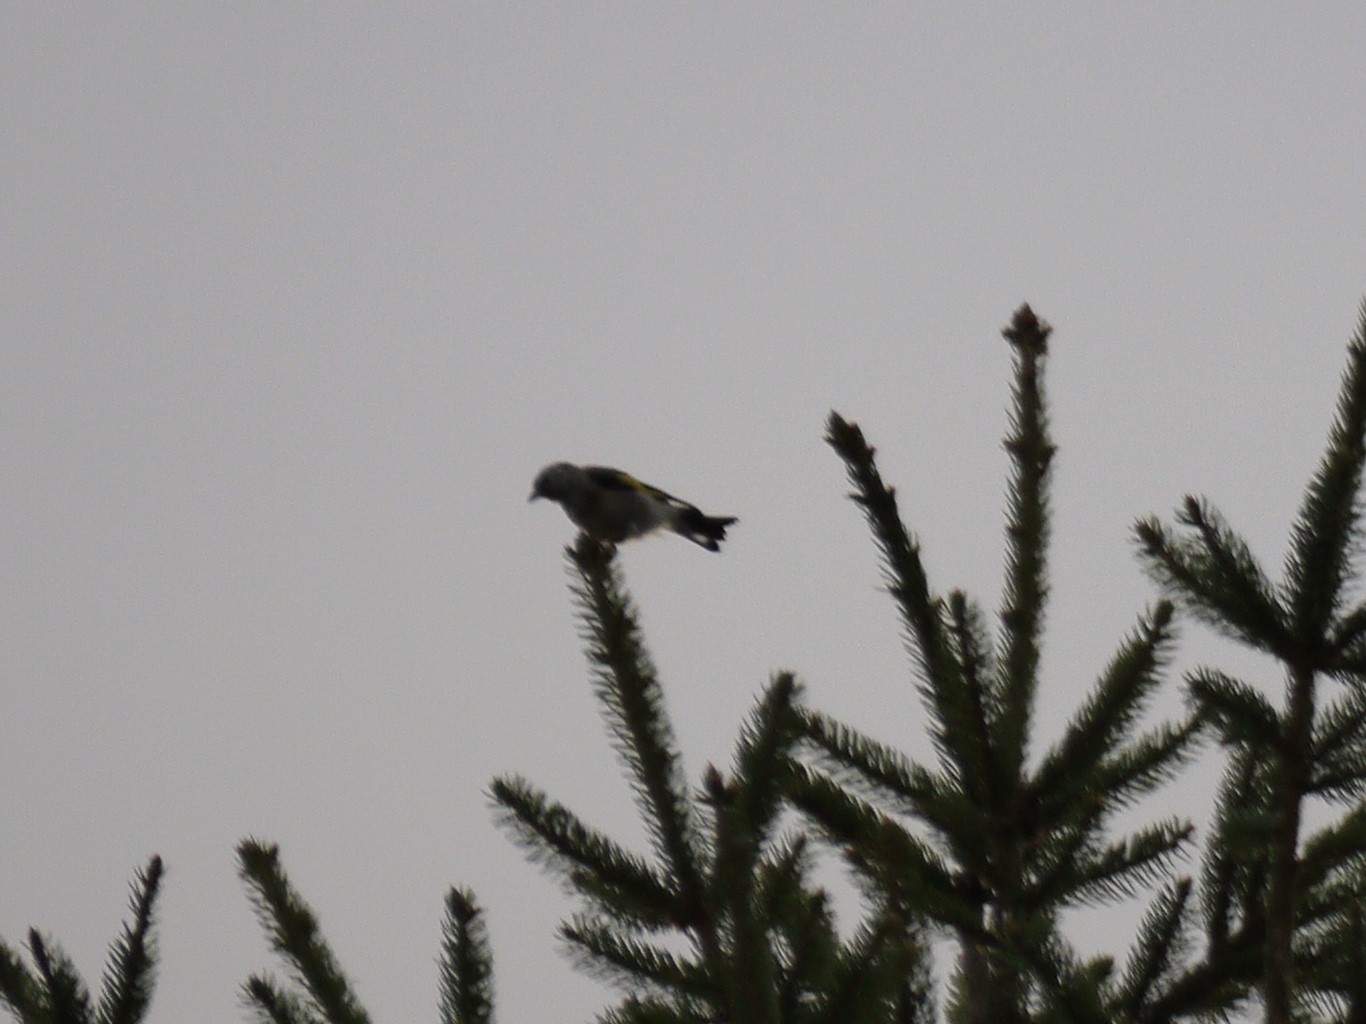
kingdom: Animalia
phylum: Chordata
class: Aves
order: Passeriformes
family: Fringillidae
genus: Carduelis
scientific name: Carduelis carduelis
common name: European goldfinch
